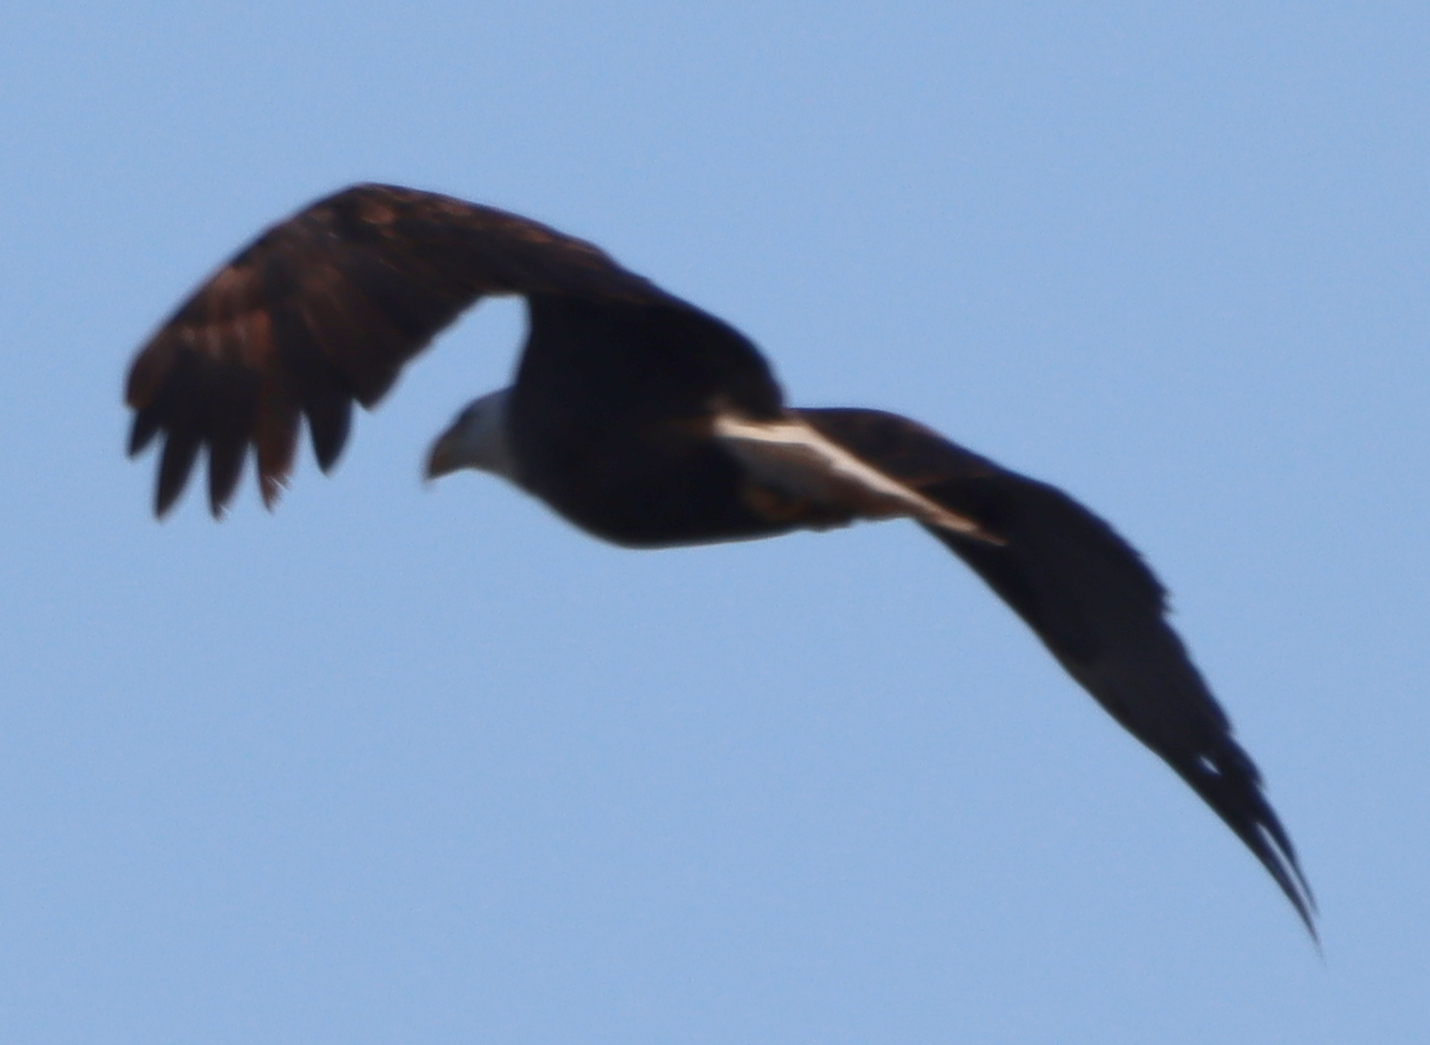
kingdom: Animalia
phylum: Chordata
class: Aves
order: Accipitriformes
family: Accipitridae
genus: Haliaeetus
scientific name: Haliaeetus leucocephalus
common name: Bald eagle
